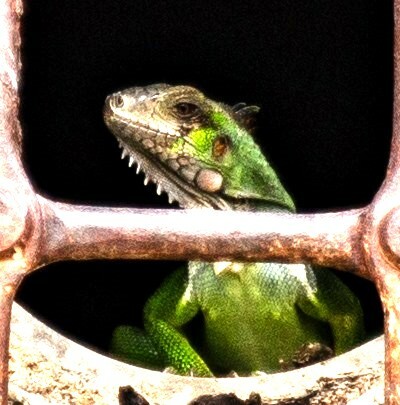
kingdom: Animalia
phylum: Chordata
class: Squamata
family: Iguanidae
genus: Iguana
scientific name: Iguana iguana
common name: Green iguana
